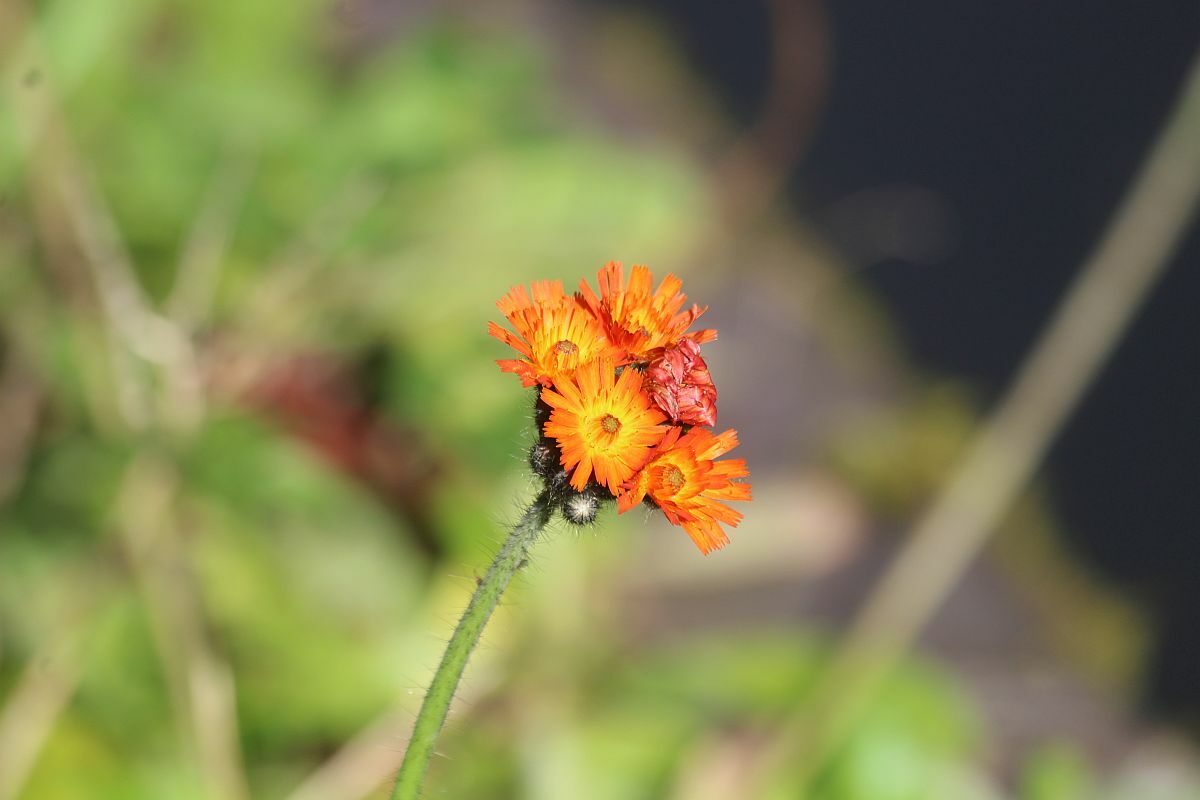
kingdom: Plantae
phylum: Tracheophyta
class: Magnoliopsida
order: Asterales
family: Asteraceae
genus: Pilosella
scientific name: Pilosella aurantiaca
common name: Fox-and-cubs
